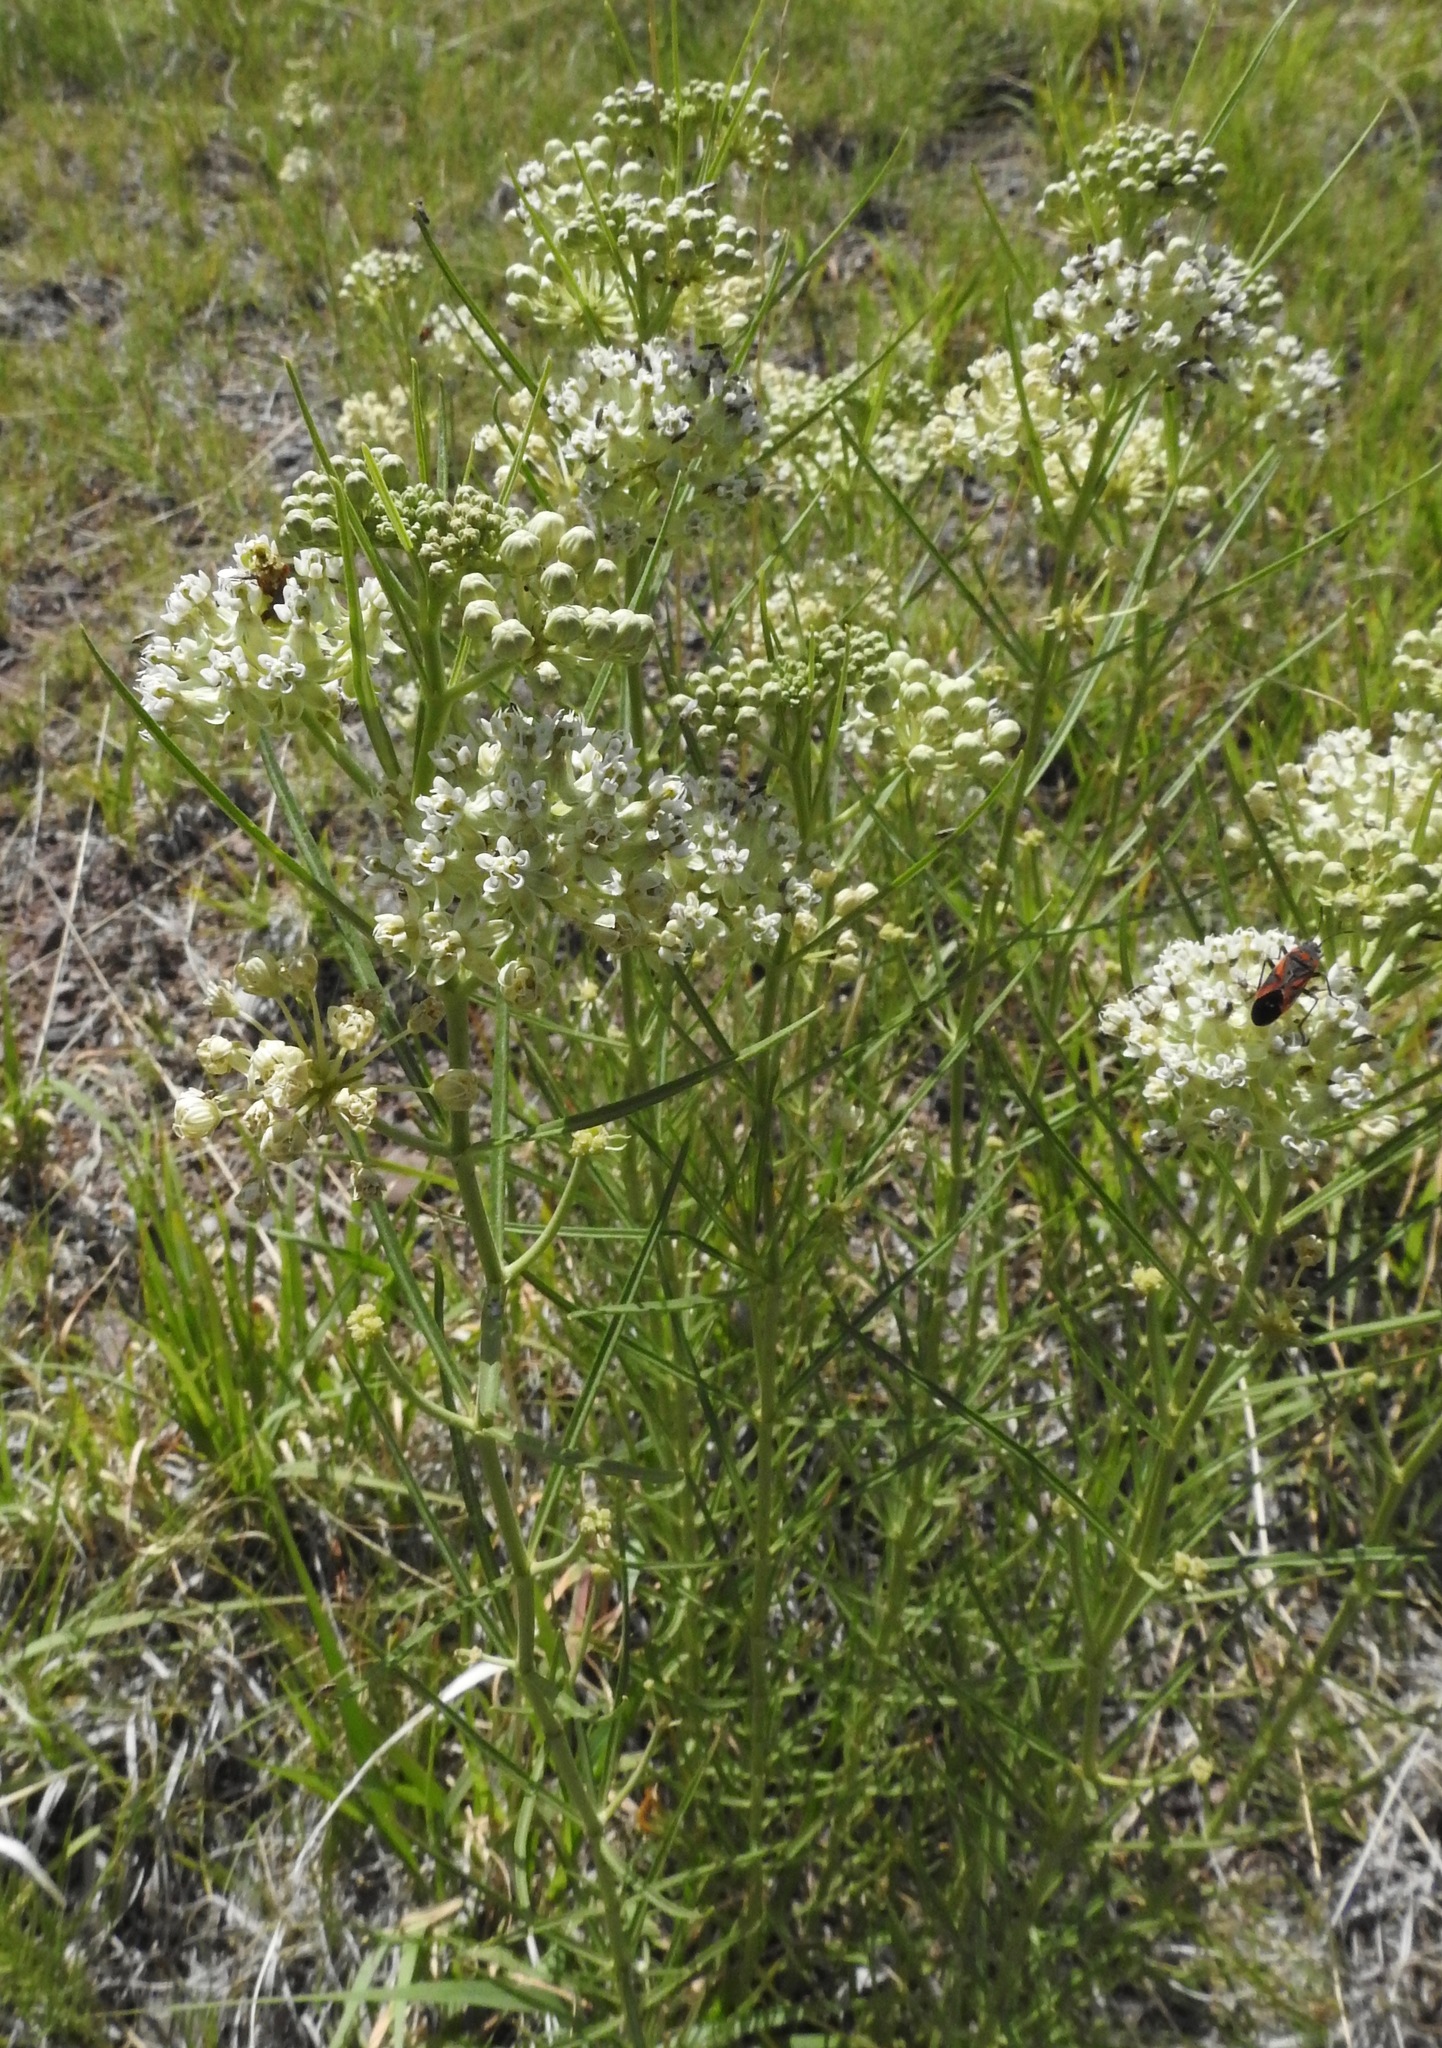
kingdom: Plantae
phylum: Tracheophyta
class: Magnoliopsida
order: Gentianales
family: Apocynaceae
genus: Asclepias
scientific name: Asclepias subverticillata
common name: Horsetail milkweed
